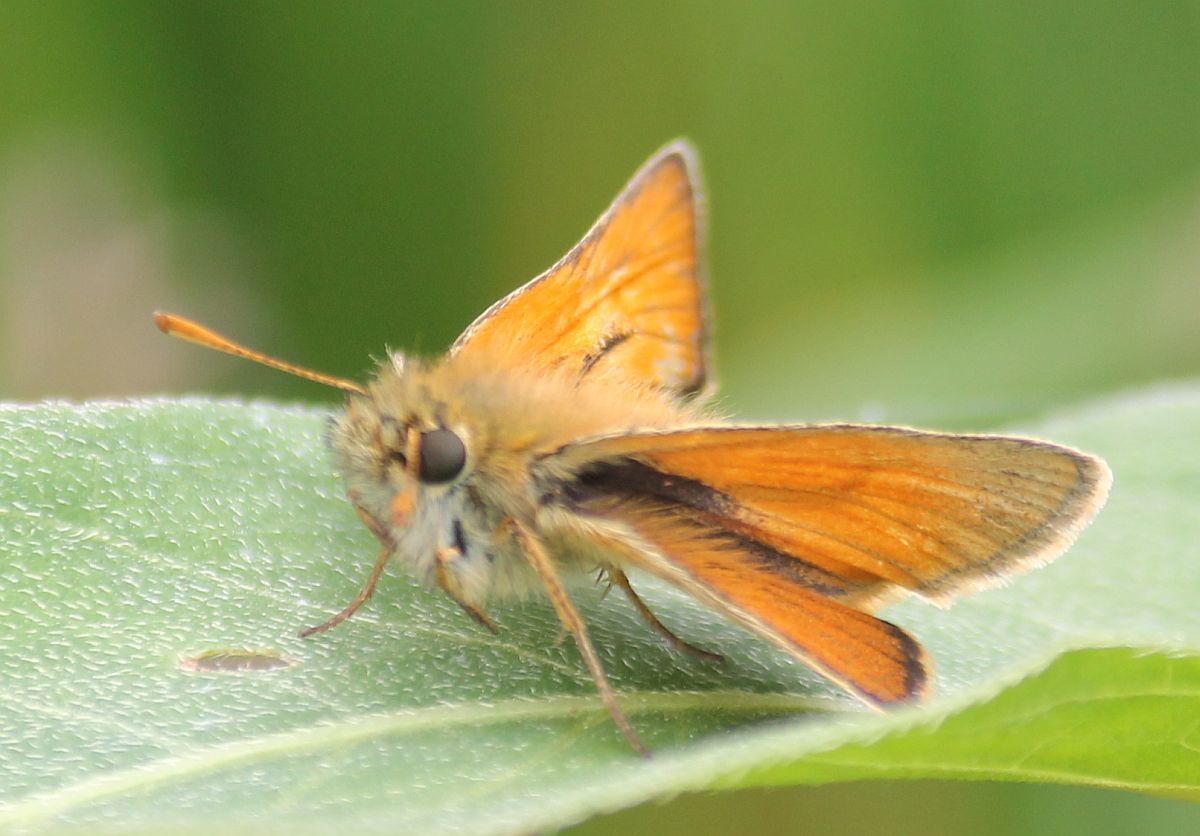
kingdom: Animalia
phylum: Arthropoda
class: Insecta
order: Lepidoptera
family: Hesperiidae
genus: Thymelicus
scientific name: Thymelicus sylvestris
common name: Small skipper
